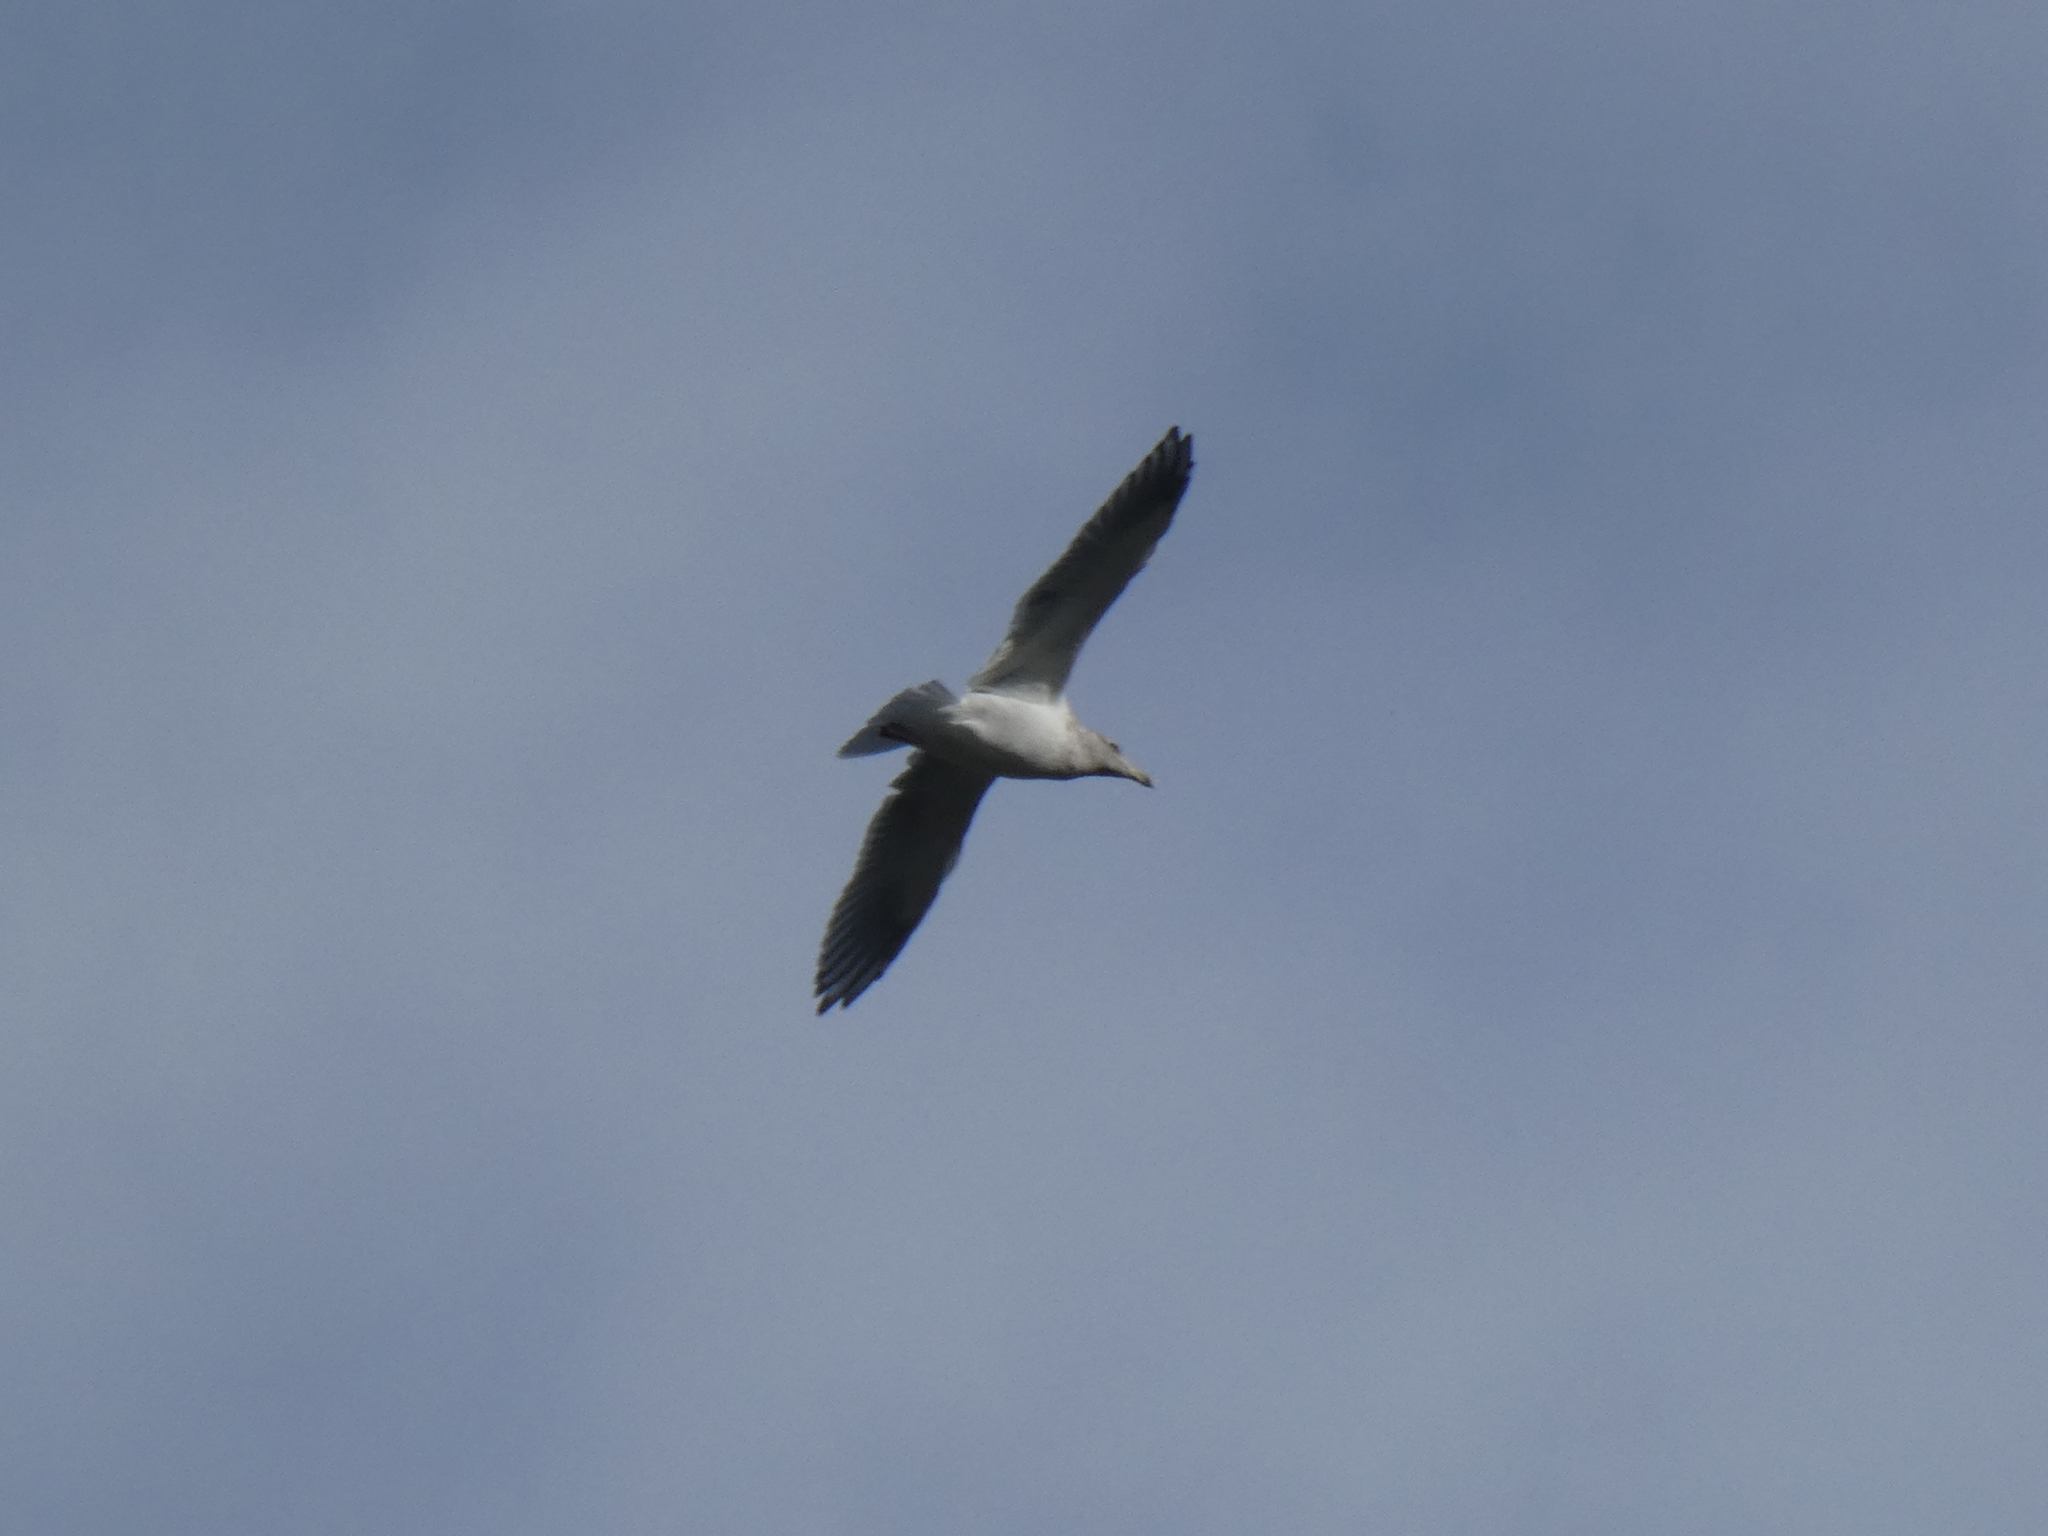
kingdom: Animalia
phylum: Chordata
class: Aves
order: Charadriiformes
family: Laridae
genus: Larus
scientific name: Larus
